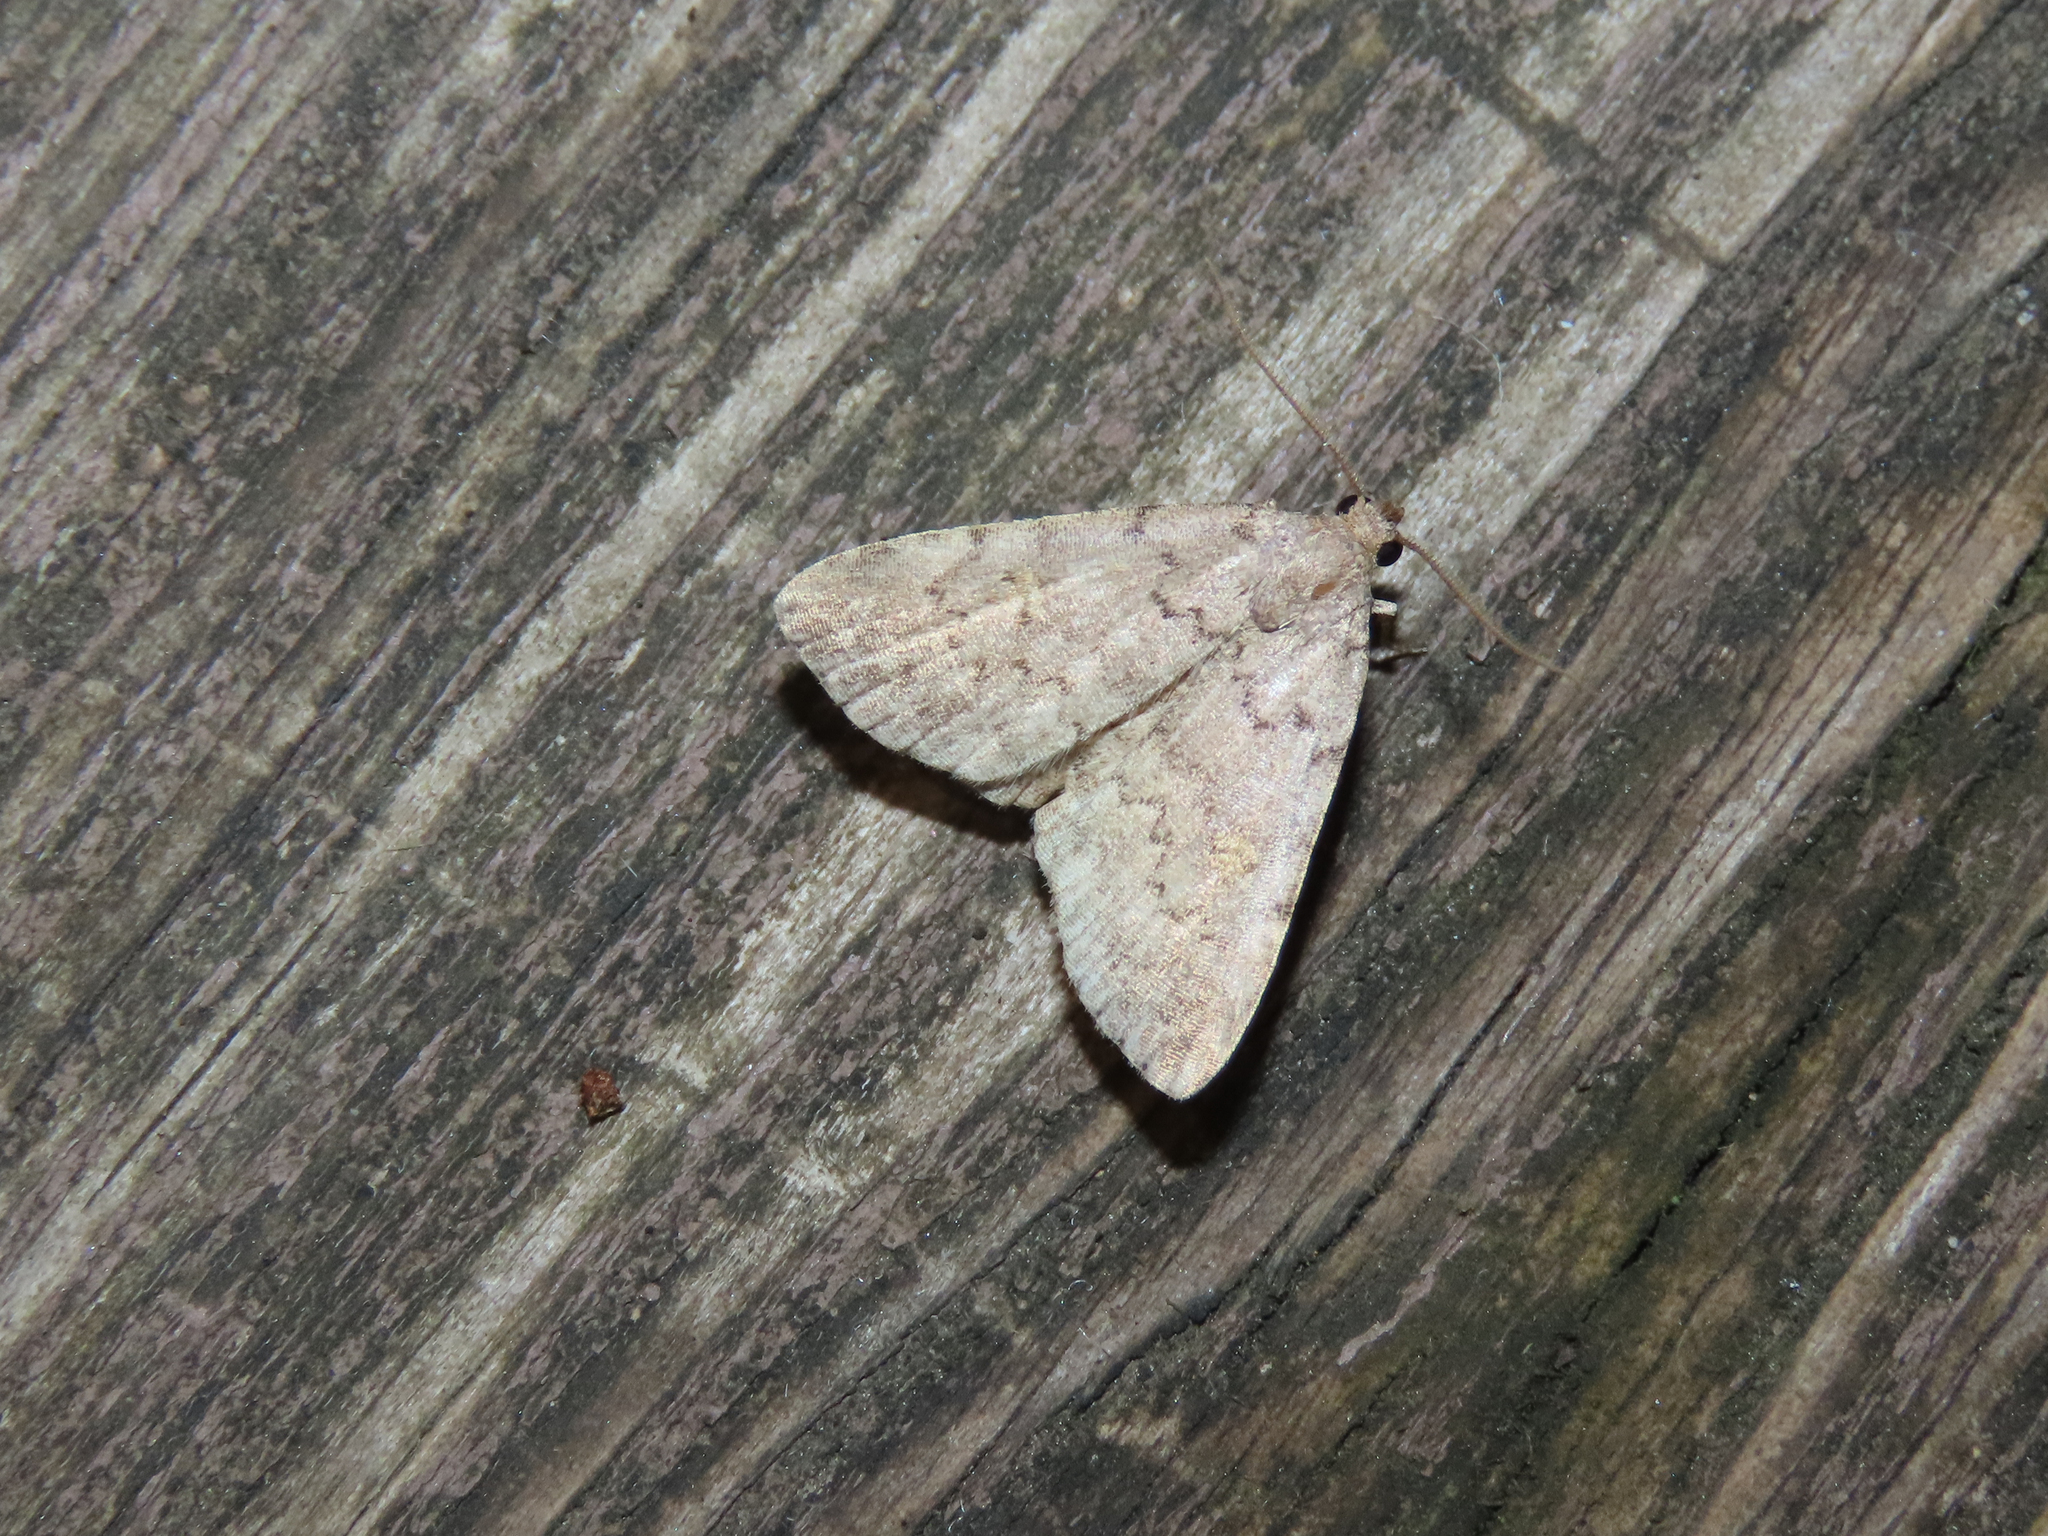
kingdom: Animalia
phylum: Arthropoda
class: Insecta
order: Lepidoptera
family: Erebidae
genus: Idia
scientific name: Idia aemula
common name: Common idia moth
